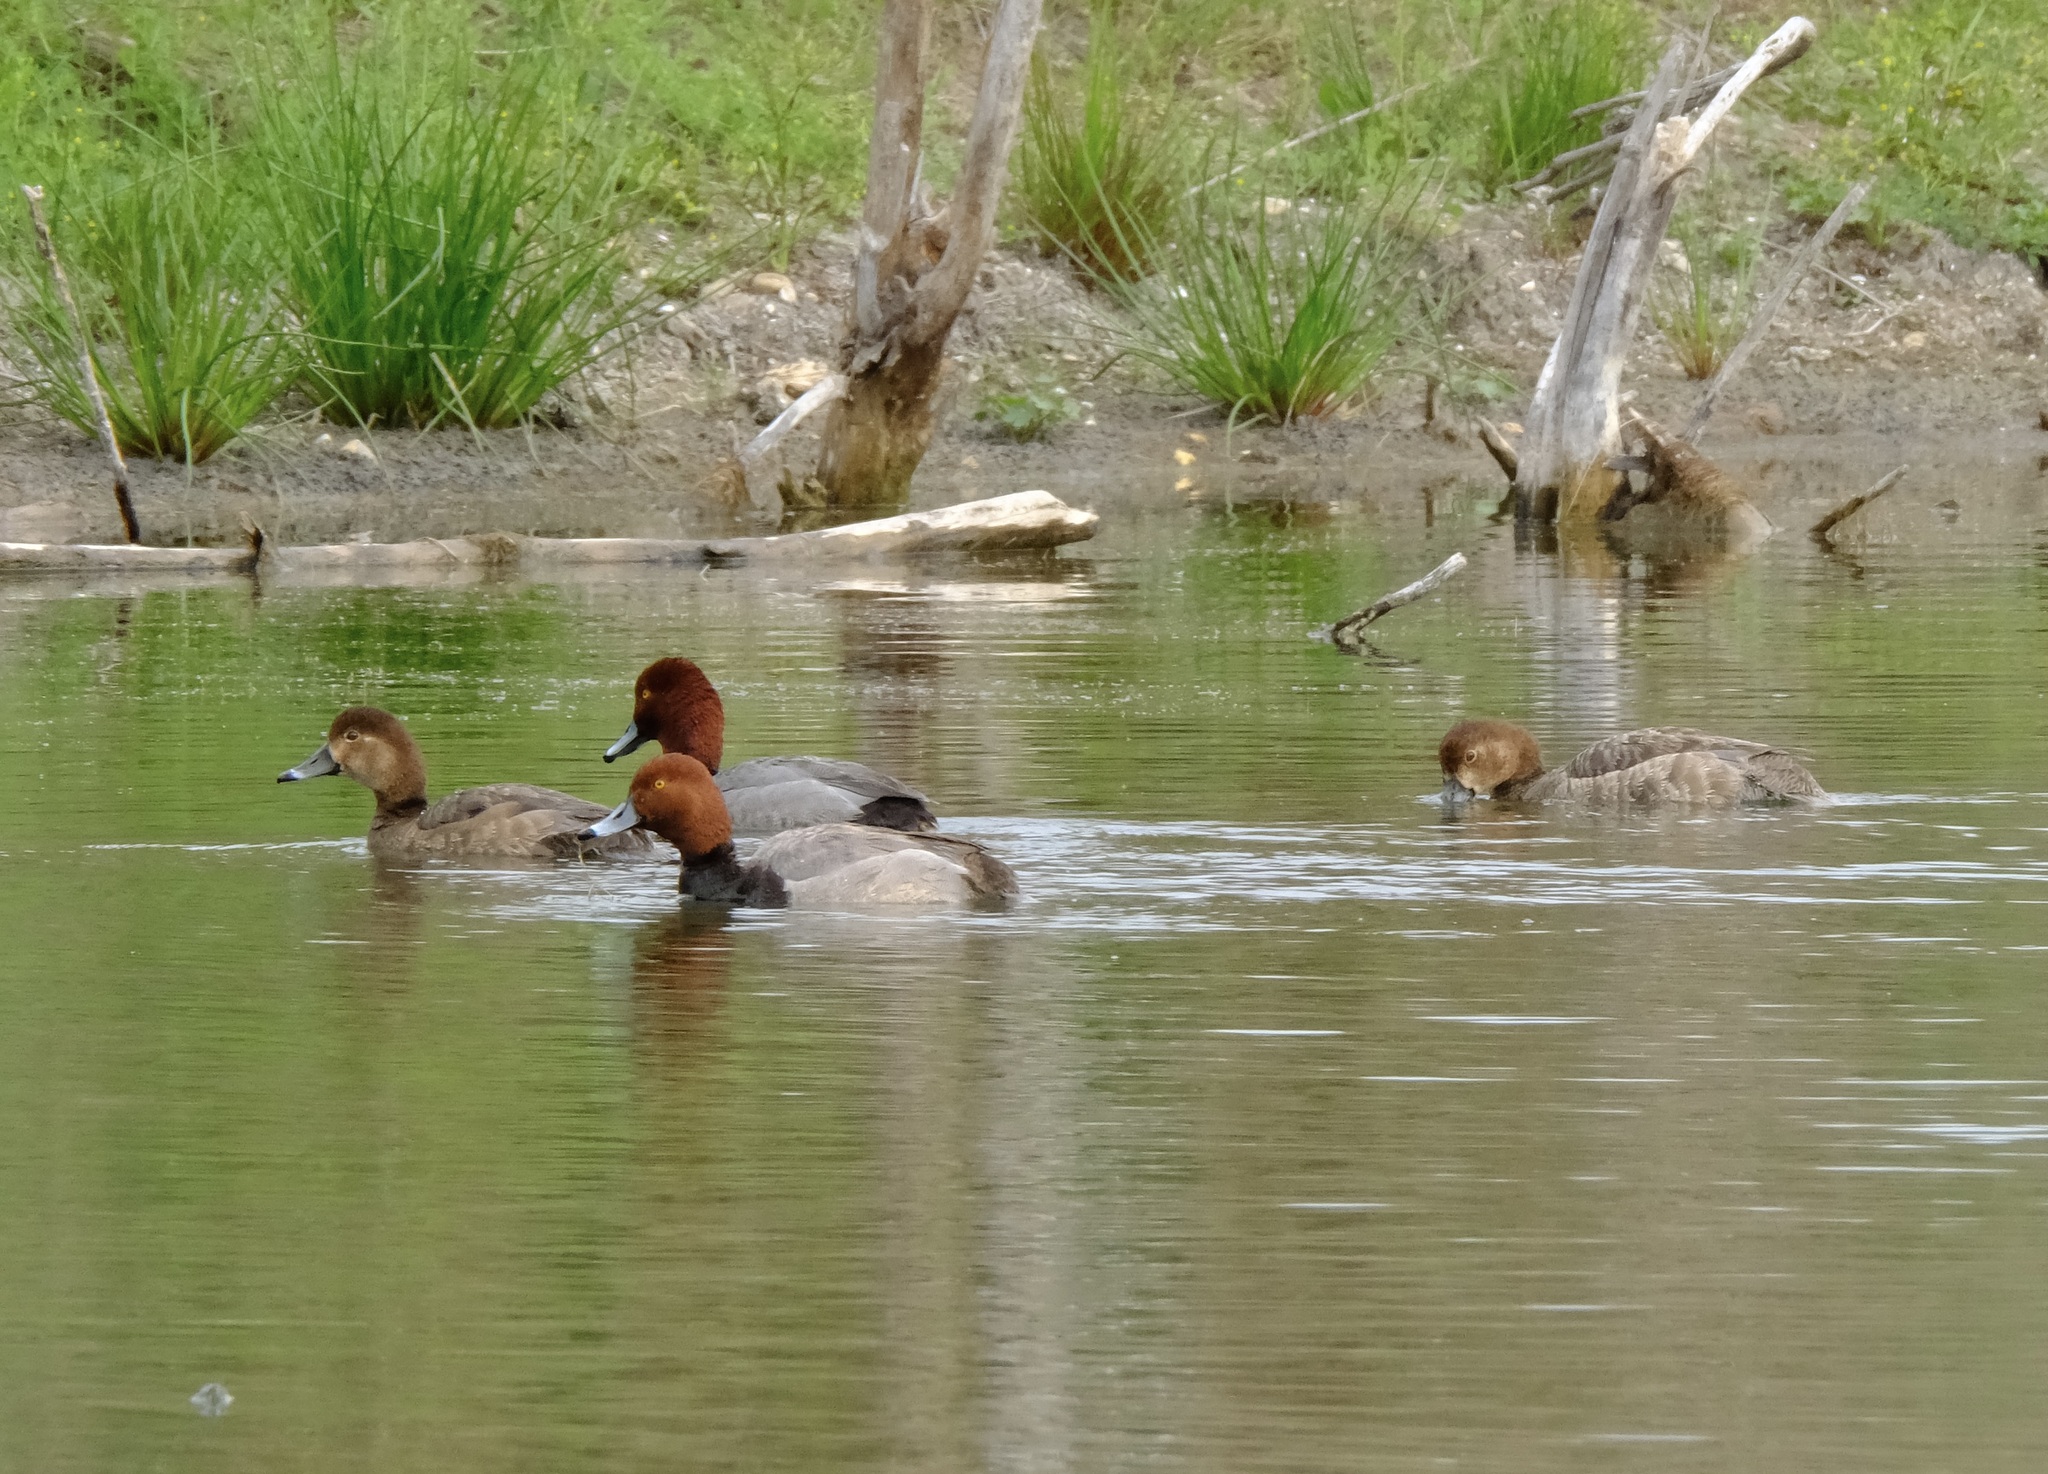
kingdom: Animalia
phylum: Chordata
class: Aves
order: Anseriformes
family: Anatidae
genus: Aythya
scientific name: Aythya americana
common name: Redhead
